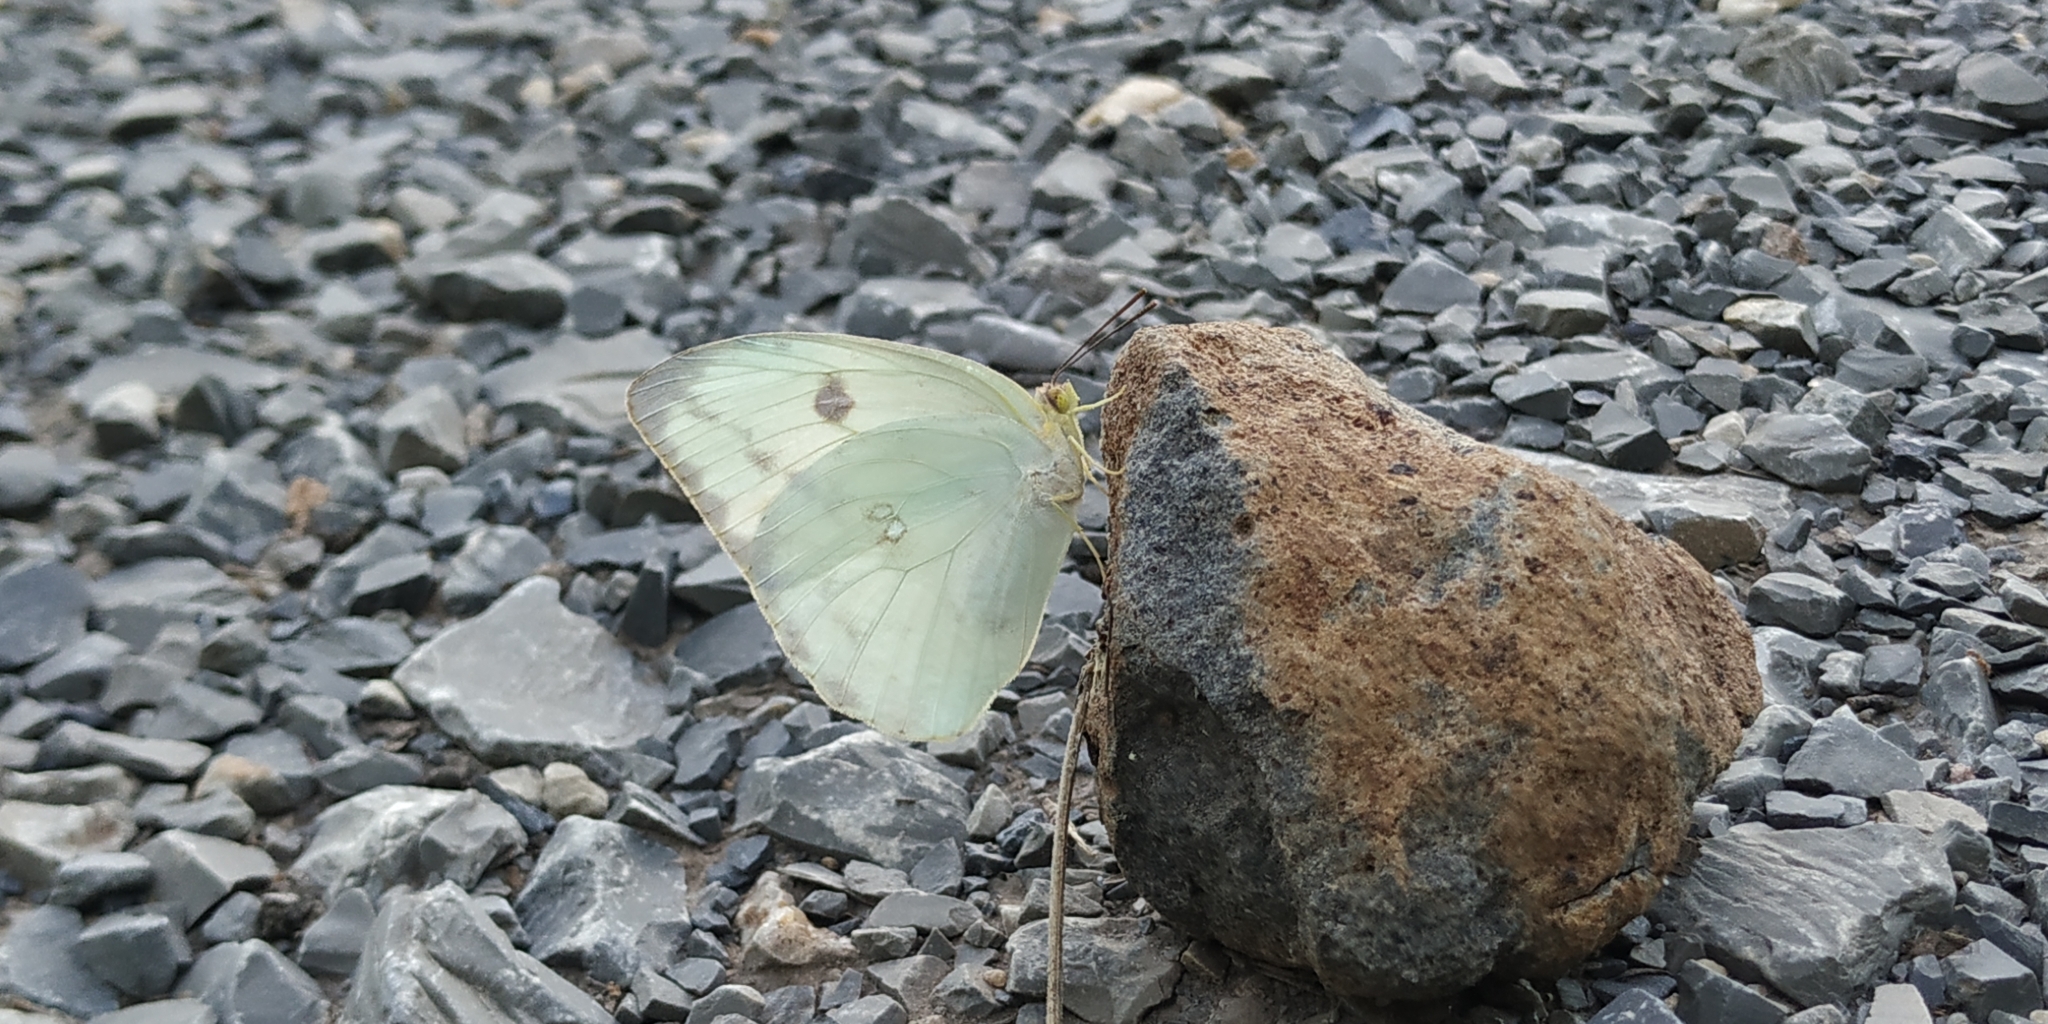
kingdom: Animalia
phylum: Arthropoda
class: Insecta
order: Lepidoptera
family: Pieridae
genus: Phoebis
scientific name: Phoebis agarithe
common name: Large orange sulphur
